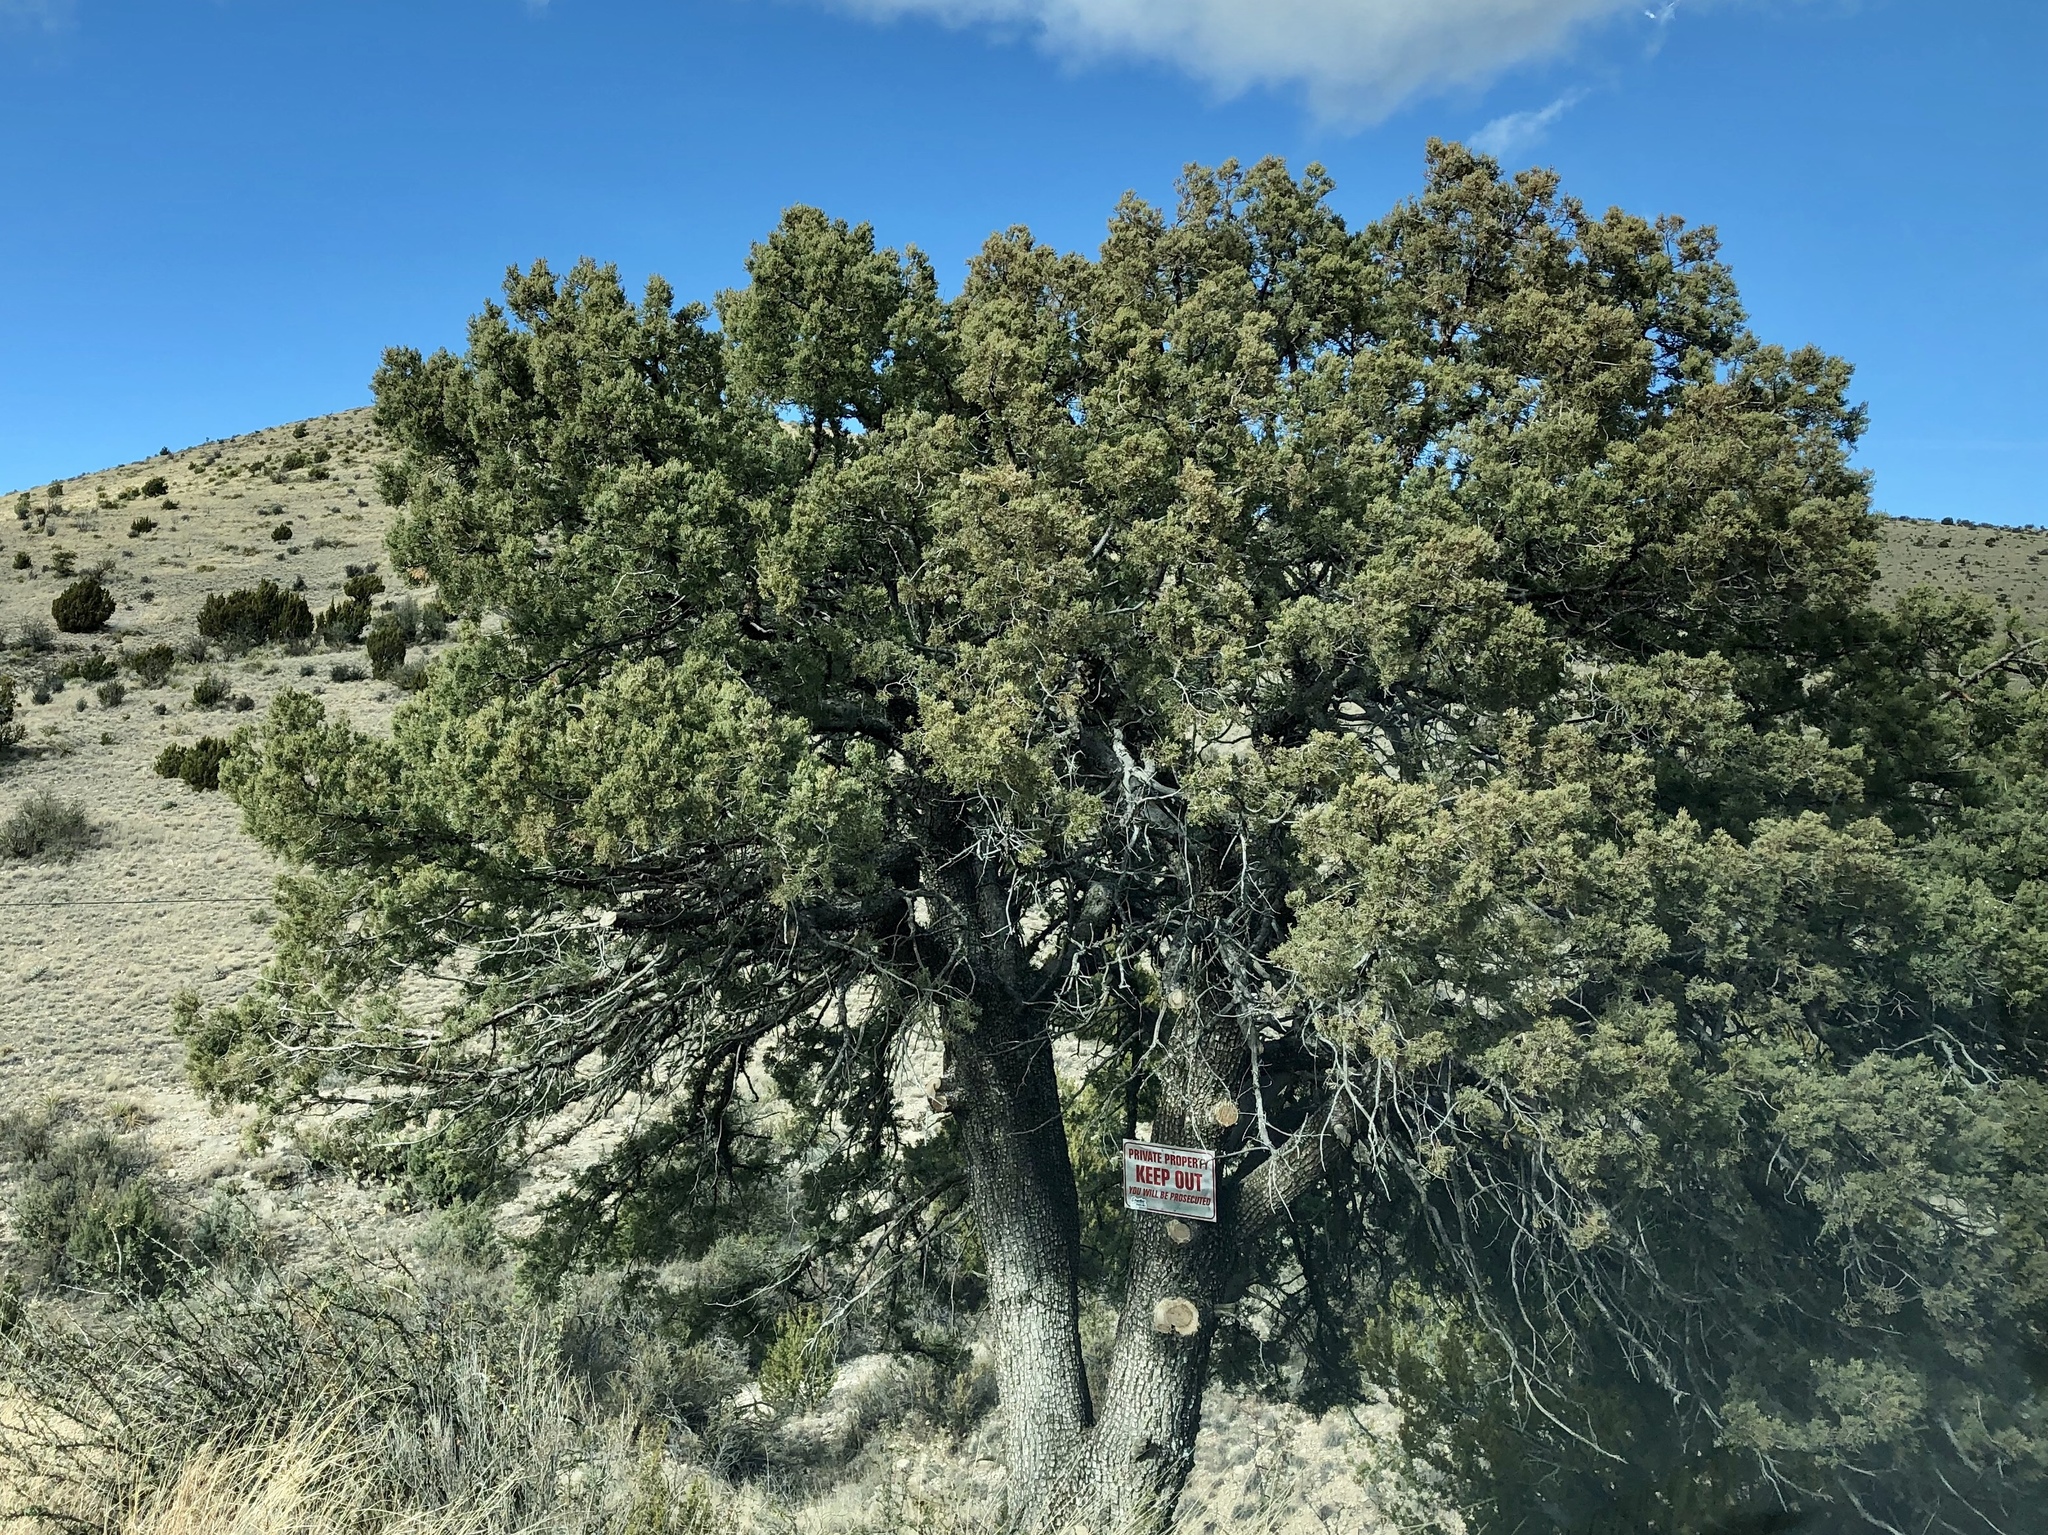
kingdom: Plantae
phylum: Tracheophyta
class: Pinopsida
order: Pinales
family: Cupressaceae
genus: Juniperus
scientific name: Juniperus deppeana
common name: Alligator juniper
